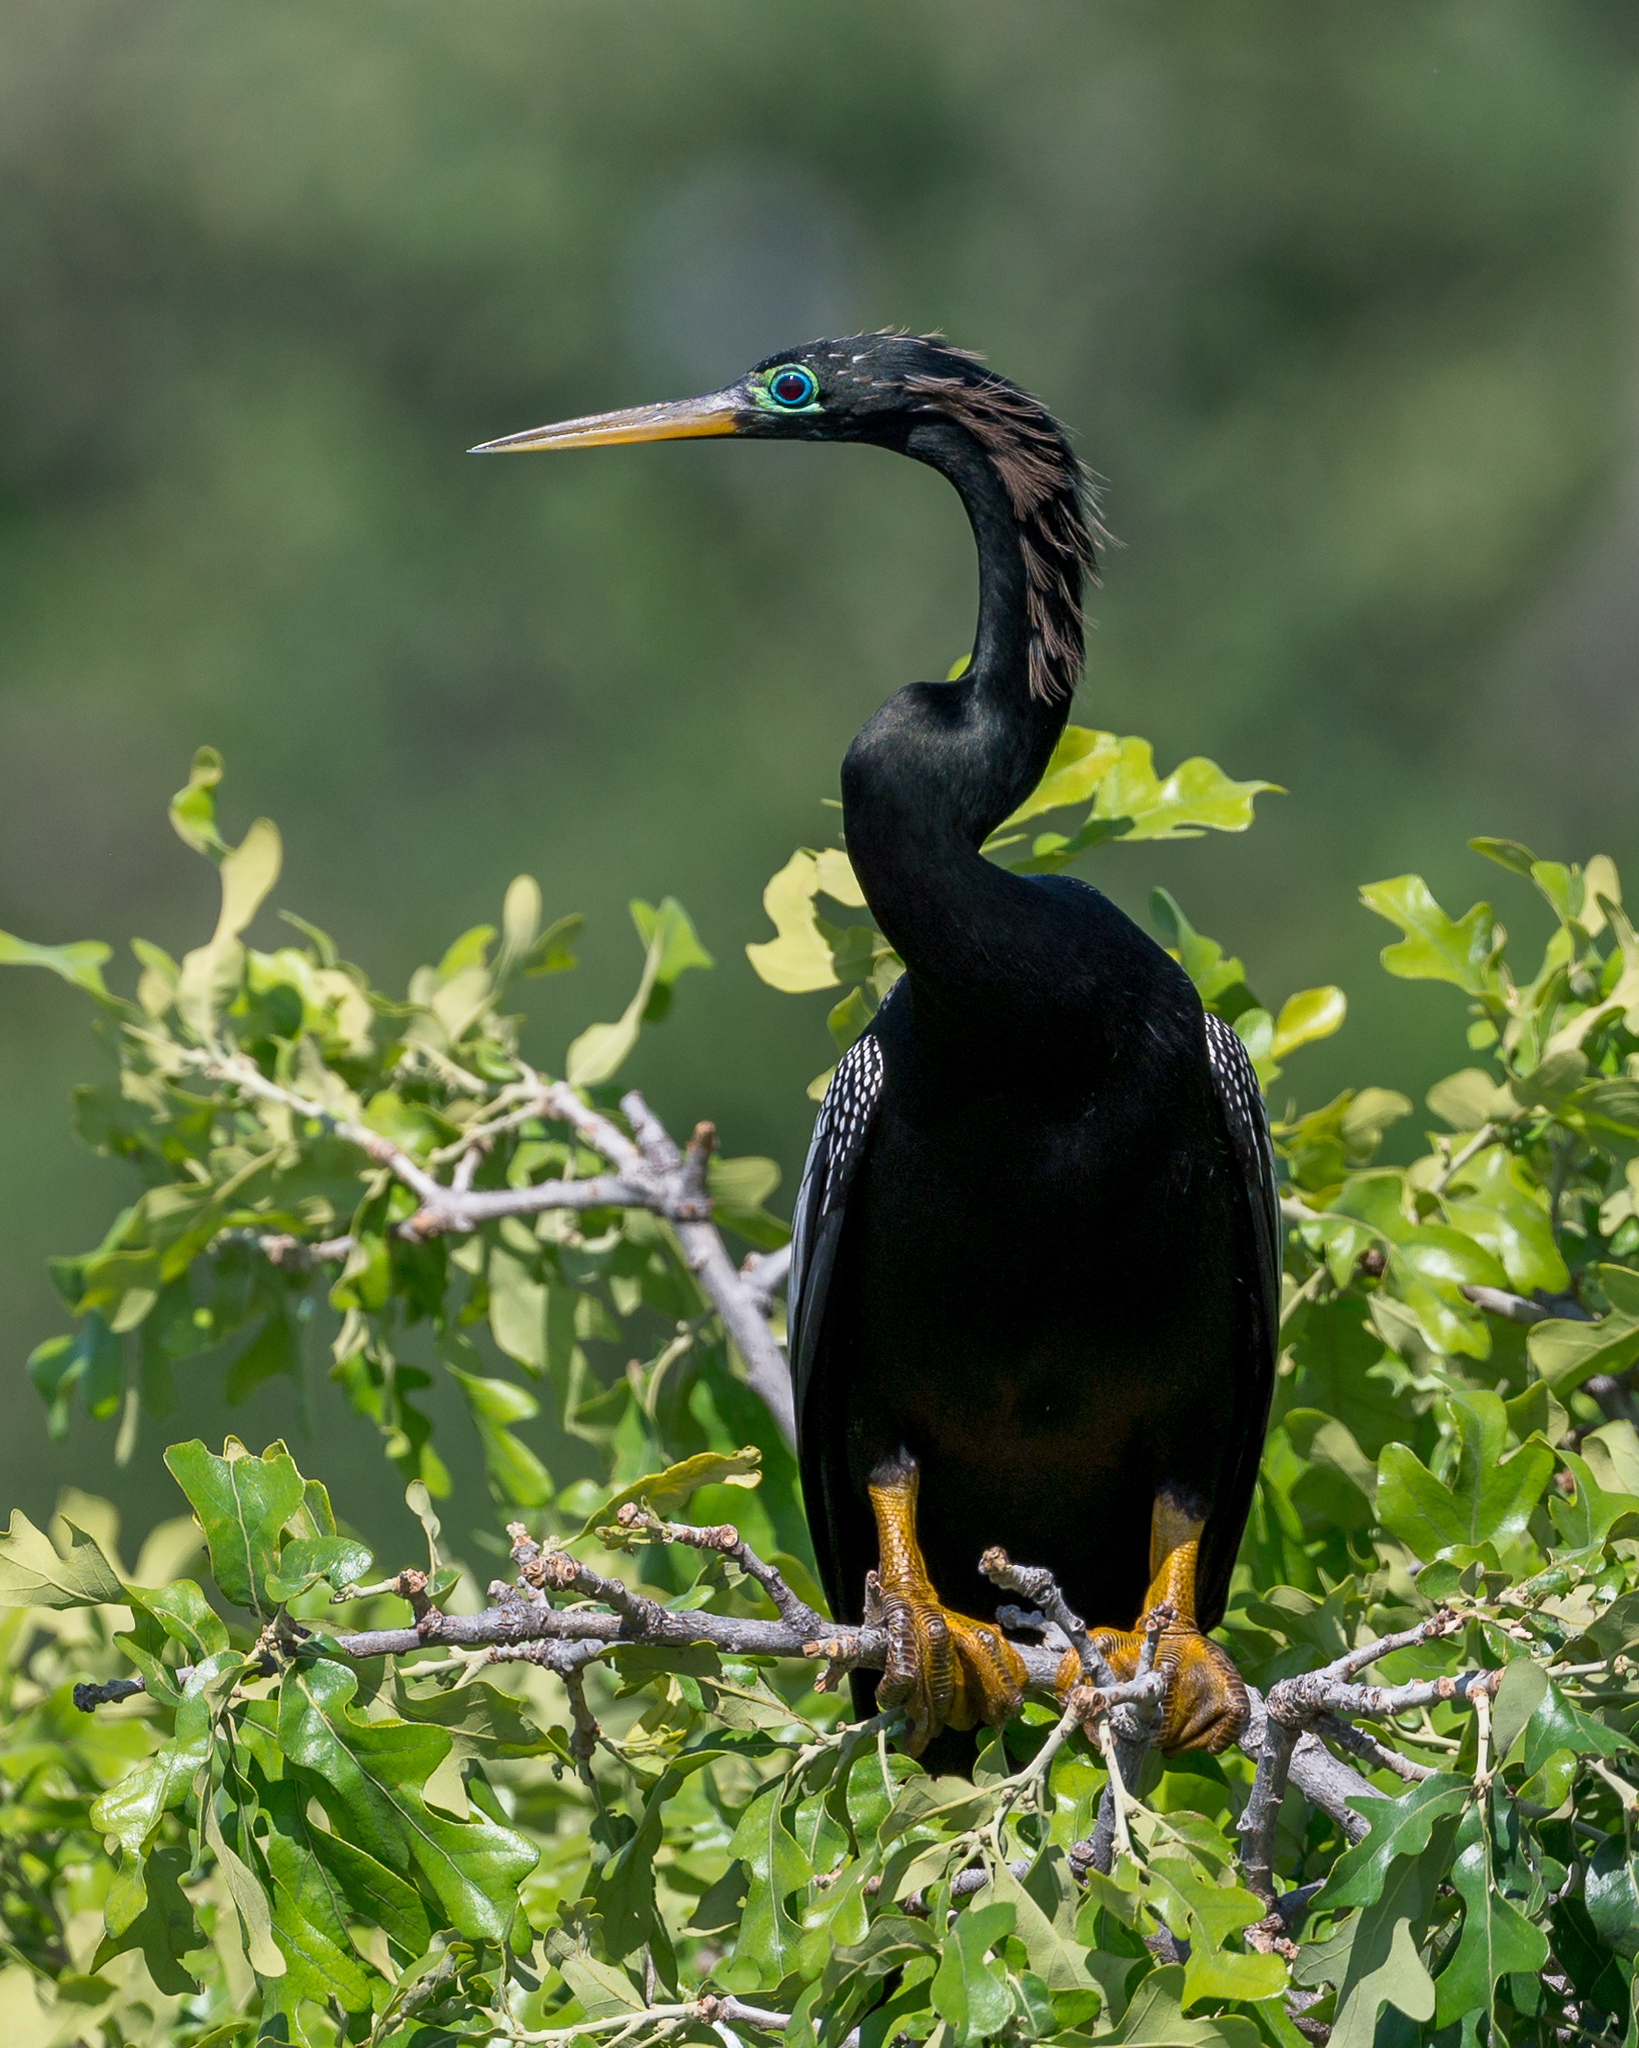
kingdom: Animalia
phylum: Chordata
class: Aves
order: Suliformes
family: Anhingidae
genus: Anhinga
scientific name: Anhinga anhinga
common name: Anhinga
